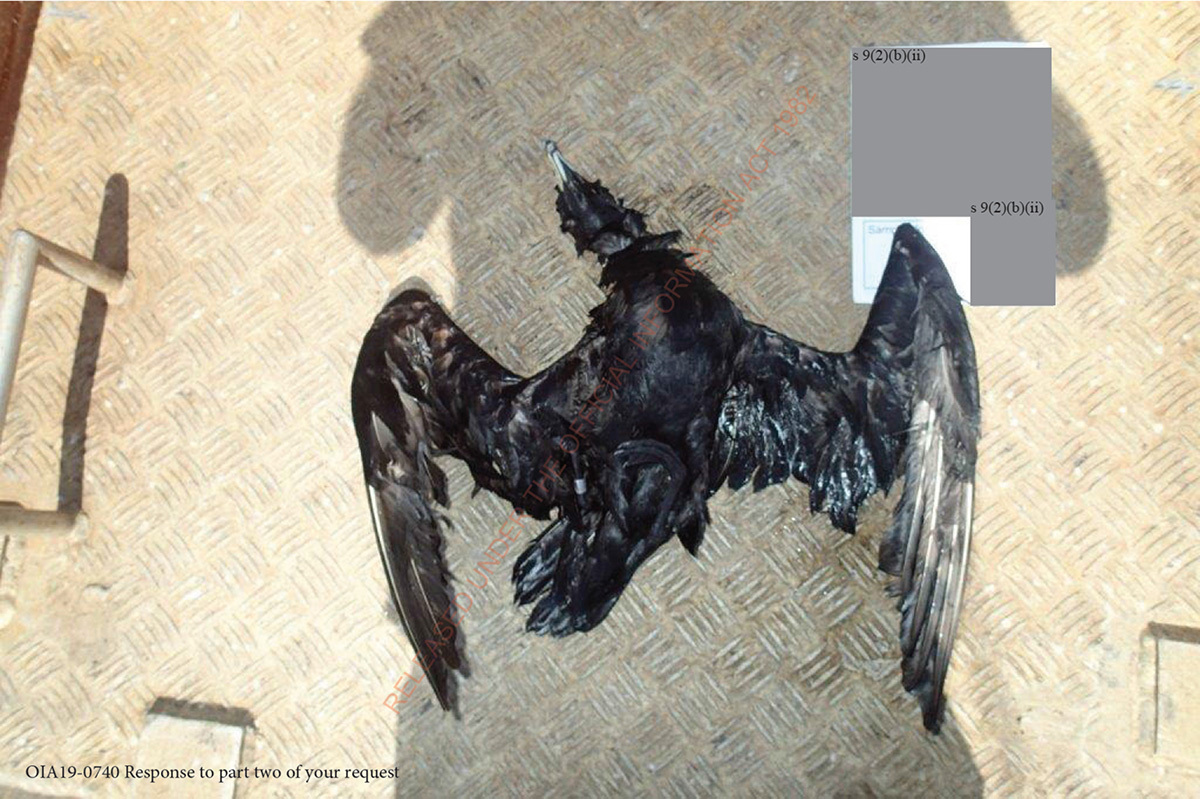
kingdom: Animalia
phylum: Chordata
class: Aves
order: Procellariiformes
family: Procellariidae
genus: Procellaria
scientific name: Procellaria parkinsoni
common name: Black petrel
